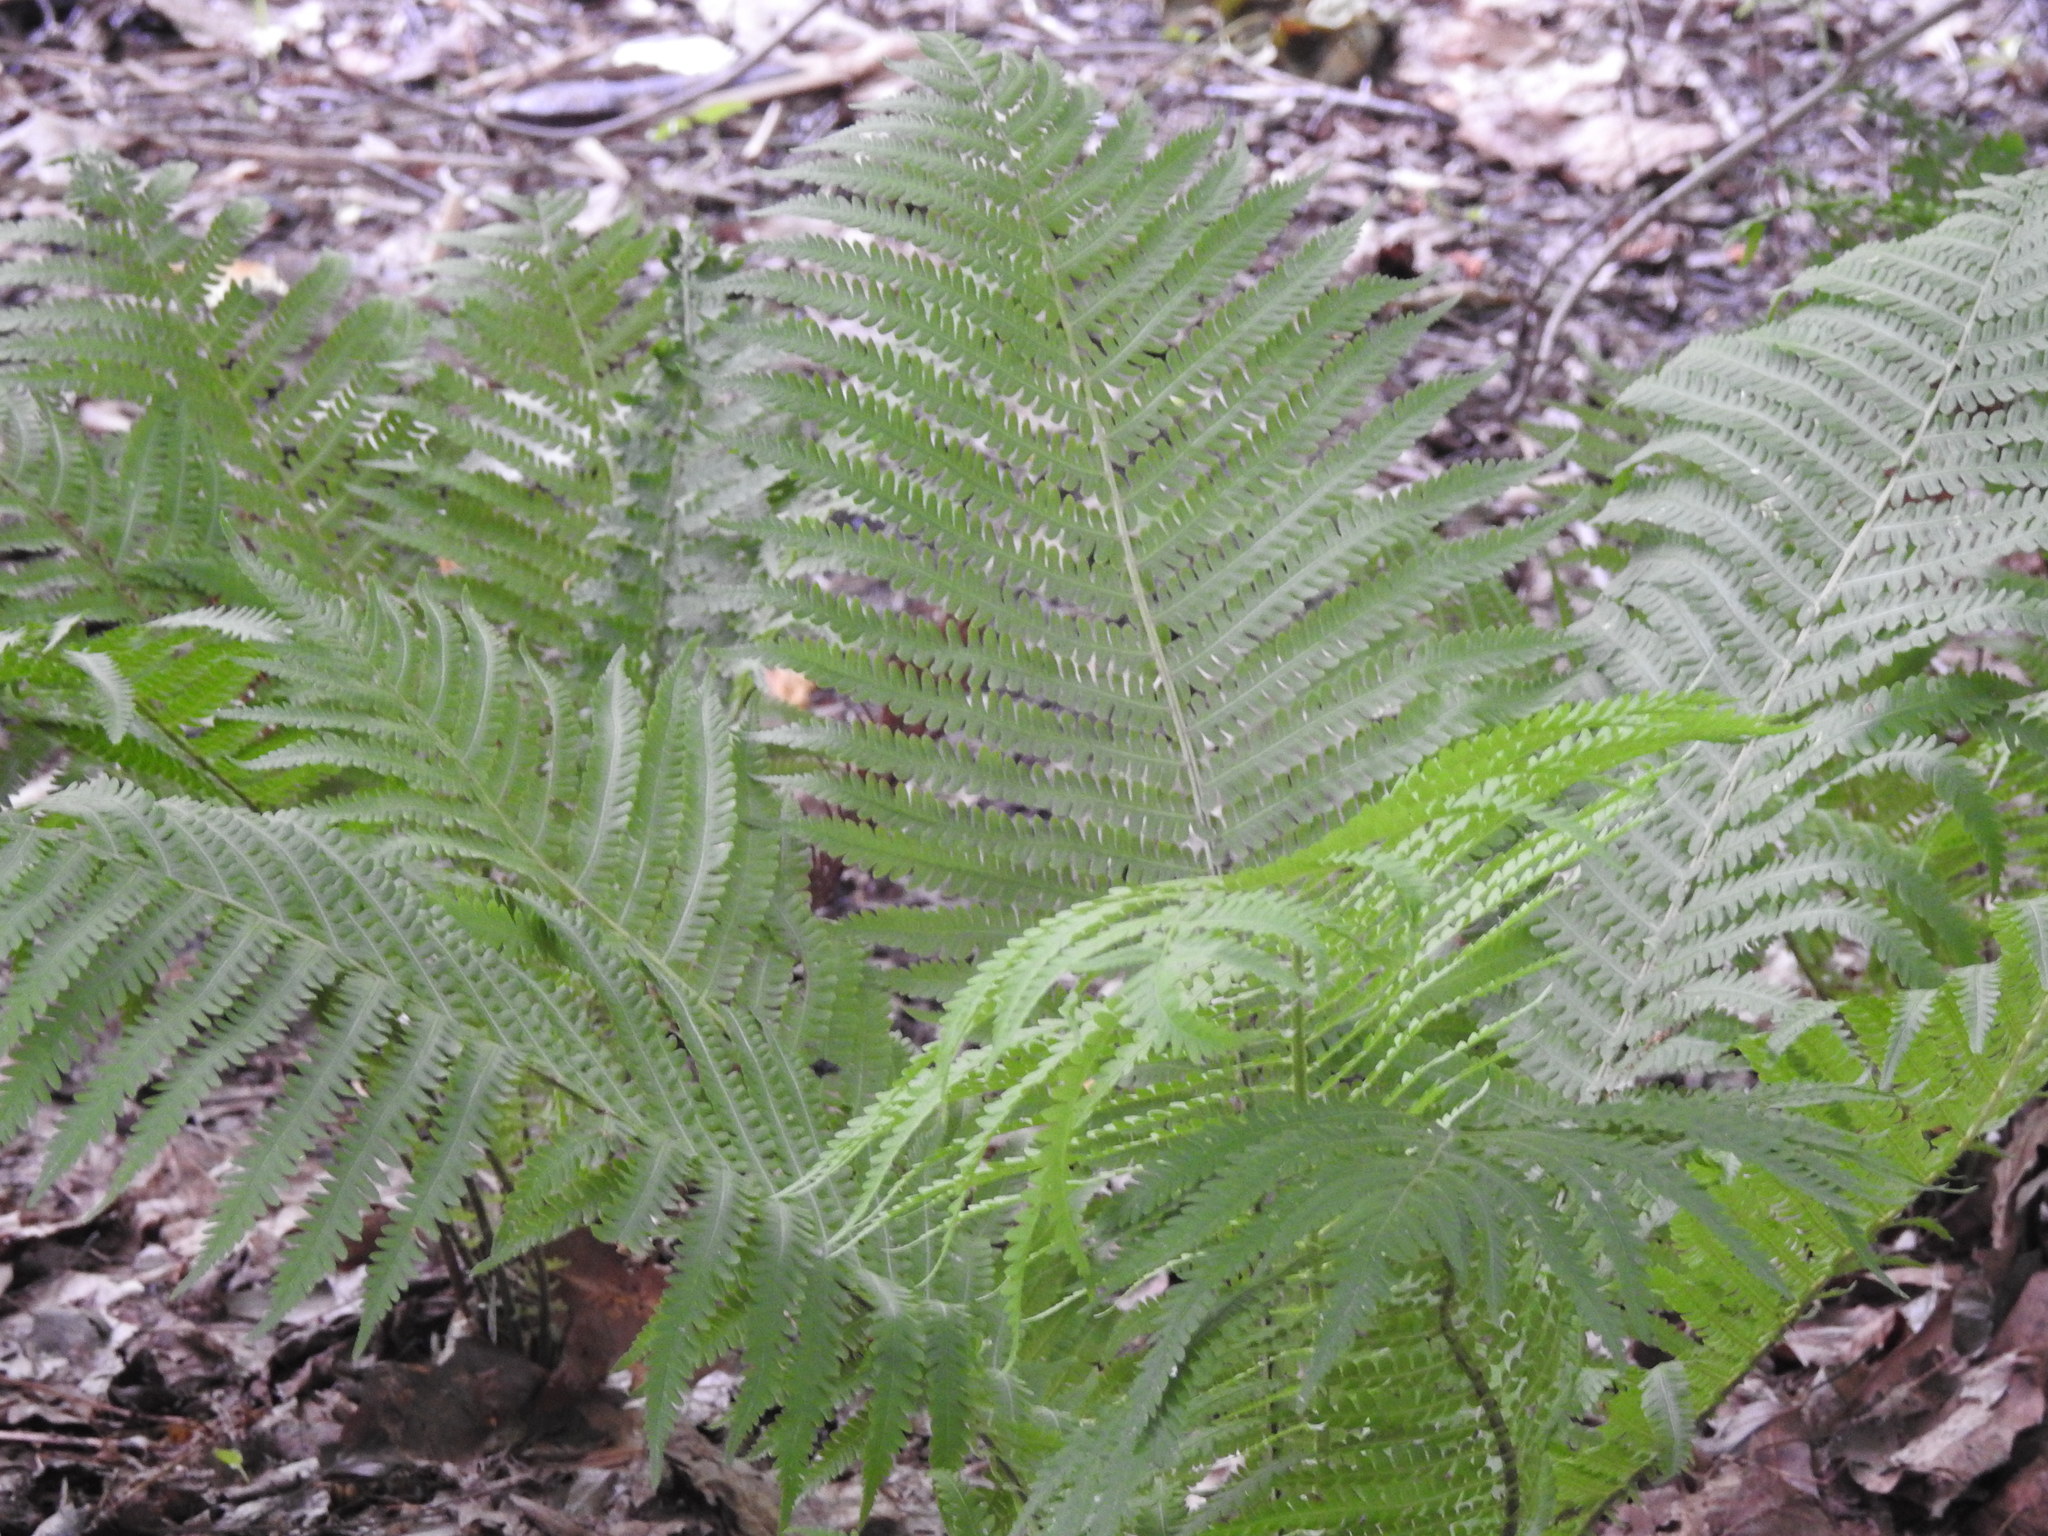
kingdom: Plantae
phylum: Tracheophyta
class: Polypodiopsida
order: Polypodiales
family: Onocleaceae
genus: Matteuccia
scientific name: Matteuccia struthiopteris
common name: Ostrich fern
